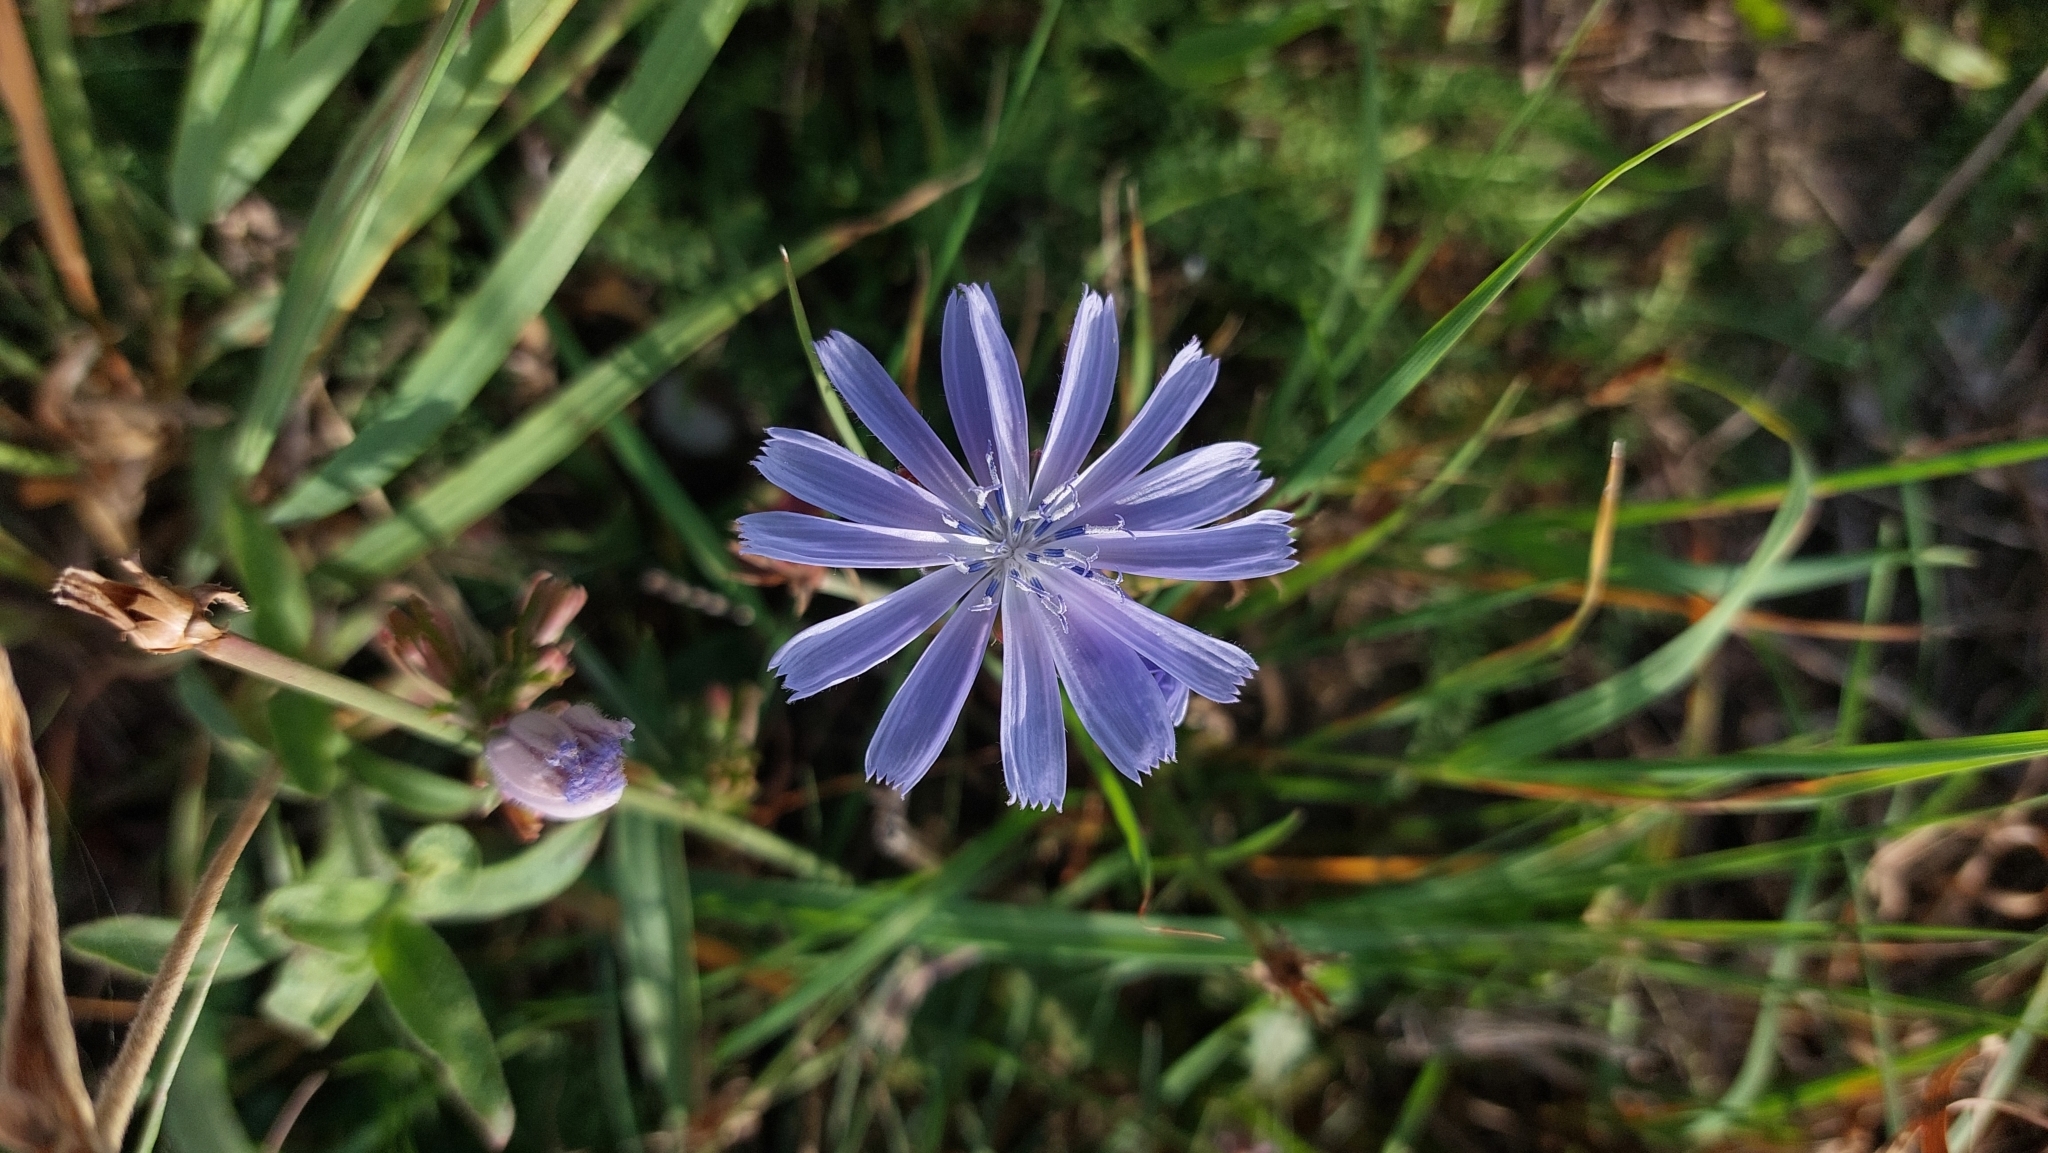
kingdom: Plantae
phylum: Tracheophyta
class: Magnoliopsida
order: Asterales
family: Asteraceae
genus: Cichorium
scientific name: Cichorium intybus
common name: Chicory
